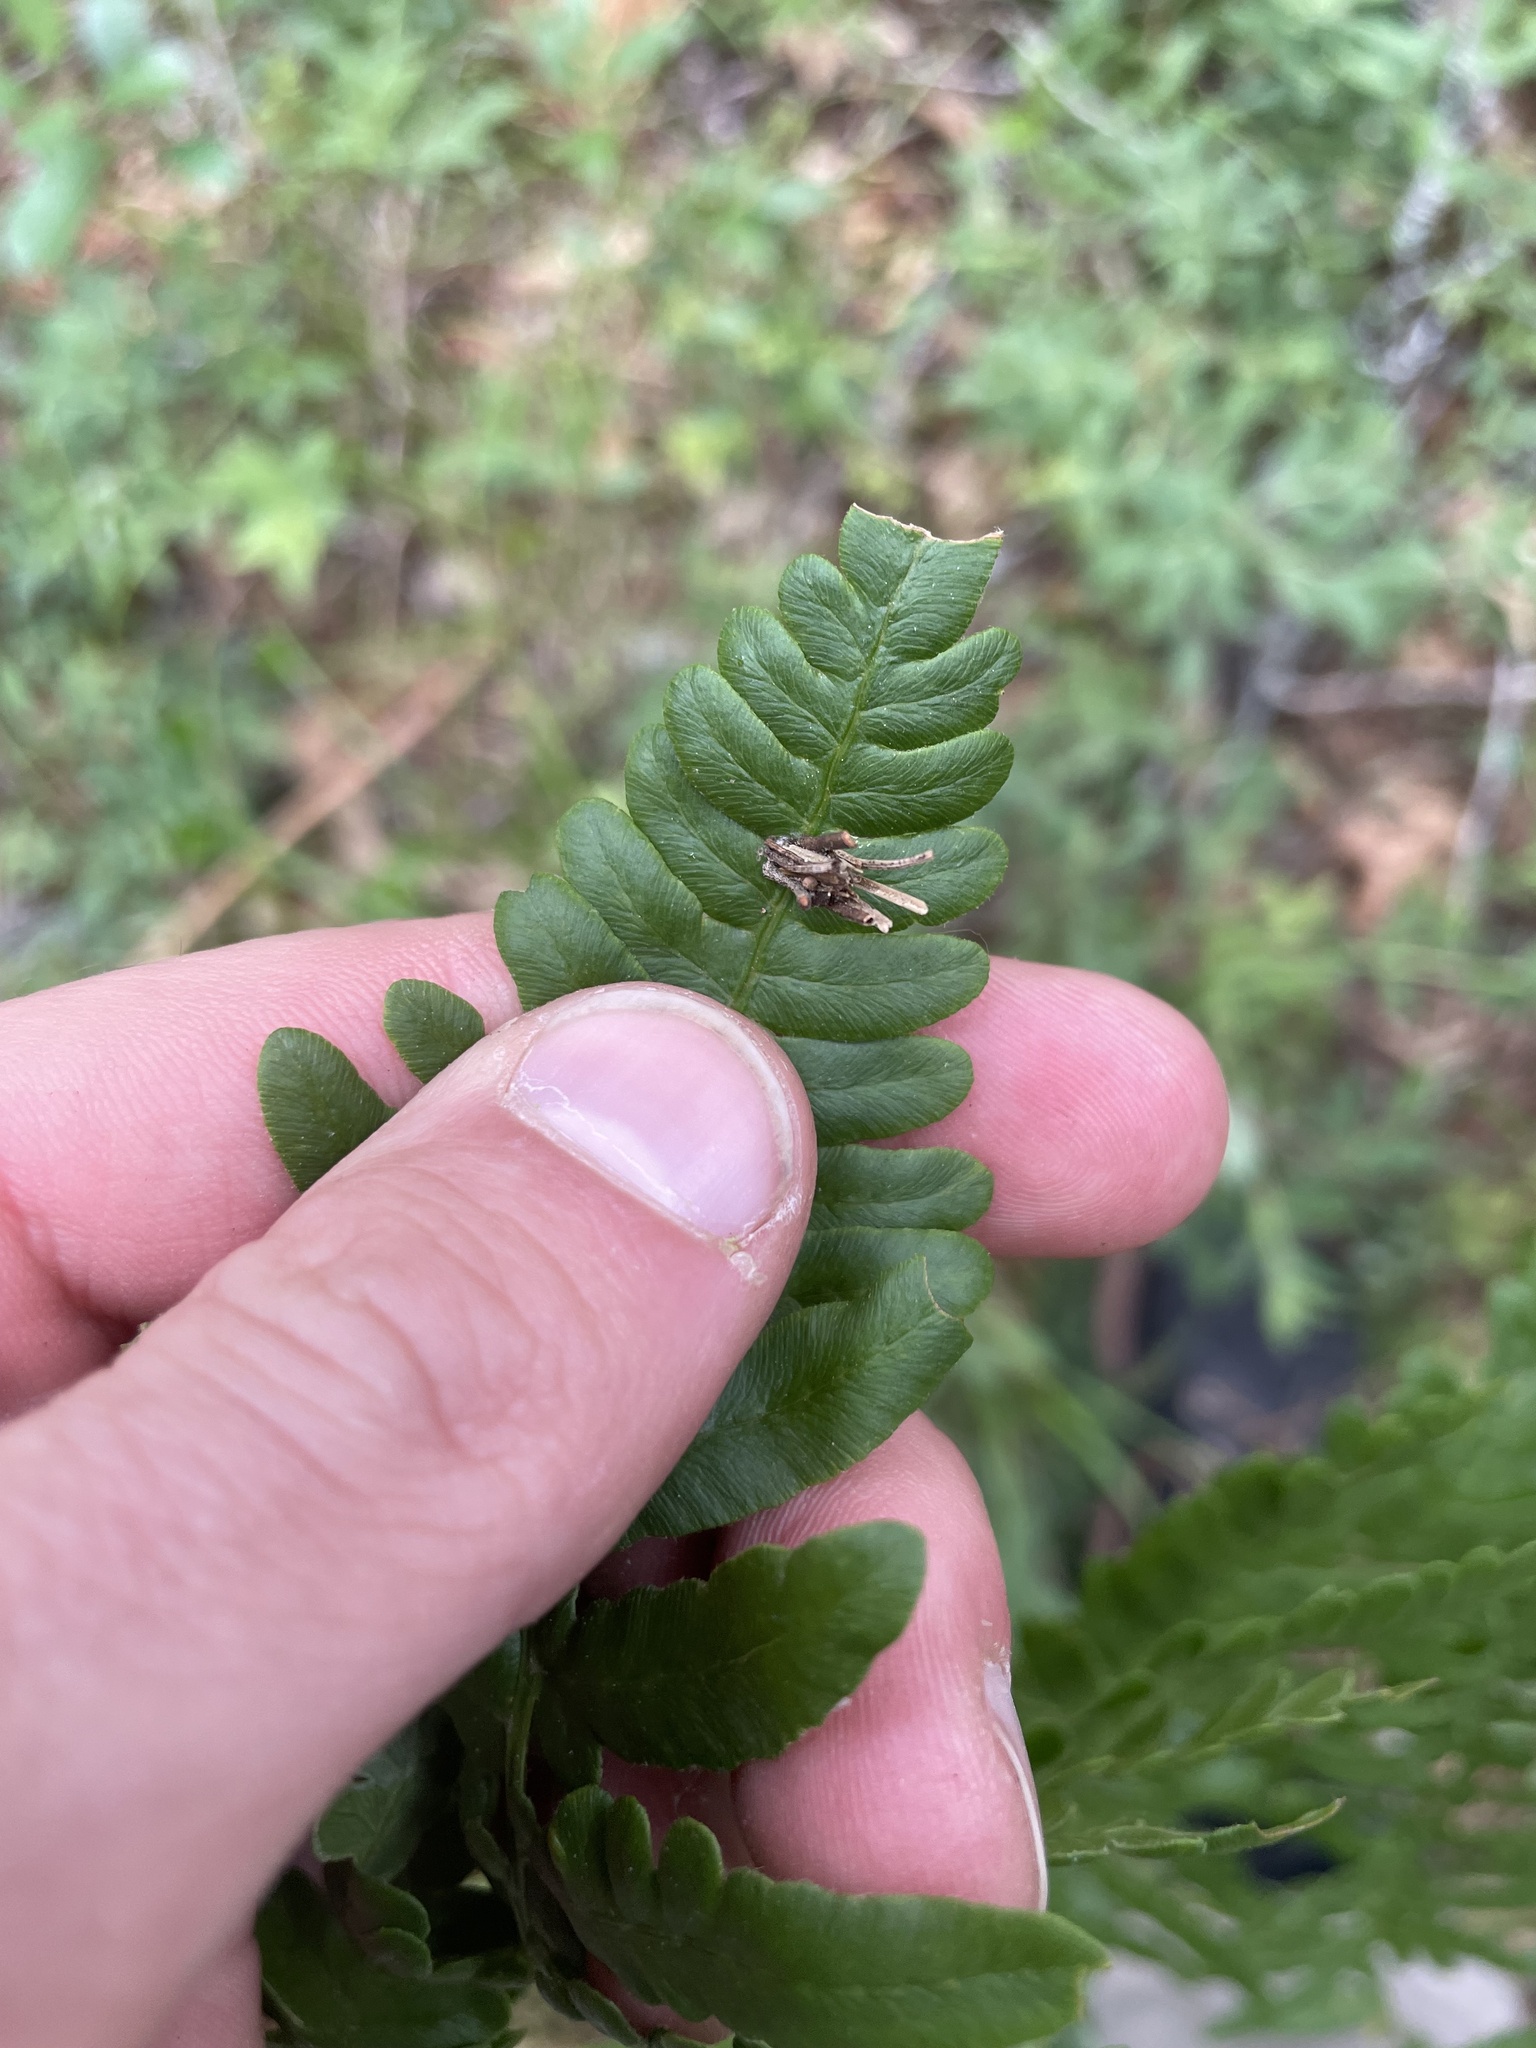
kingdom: Animalia
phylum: Arthropoda
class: Insecta
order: Lepidoptera
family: Psychidae
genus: Psyche
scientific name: Psyche casta
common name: Common sweep
